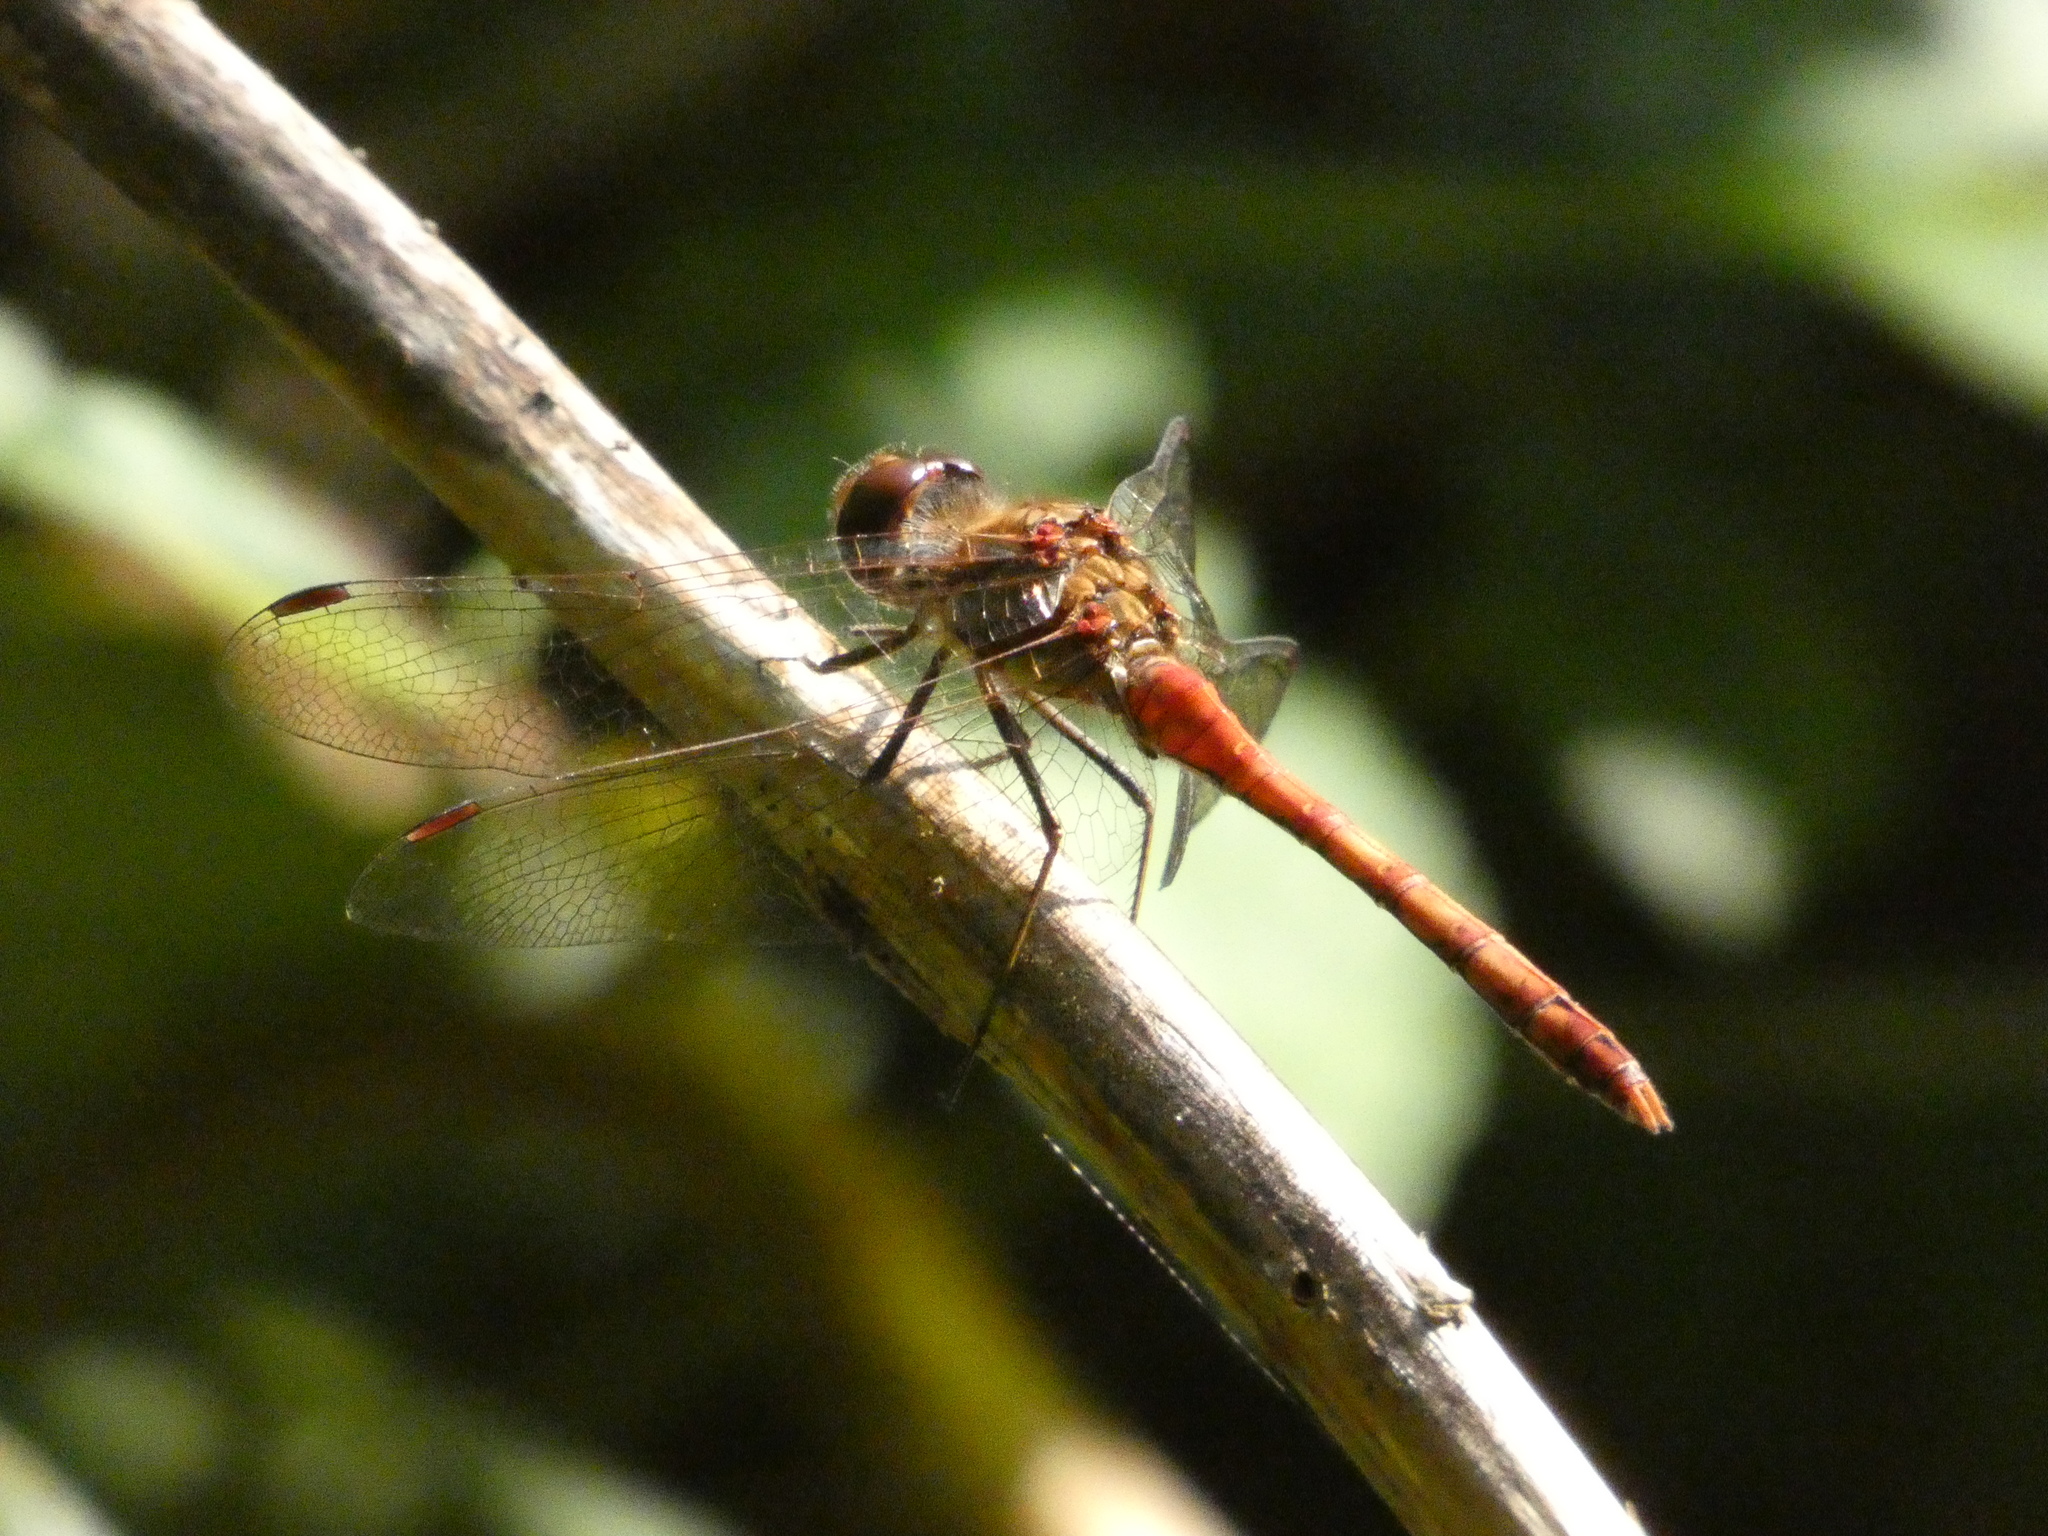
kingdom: Animalia
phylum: Arthropoda
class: Insecta
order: Odonata
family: Libellulidae
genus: Sympetrum
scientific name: Sympetrum striolatum
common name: Common darter
